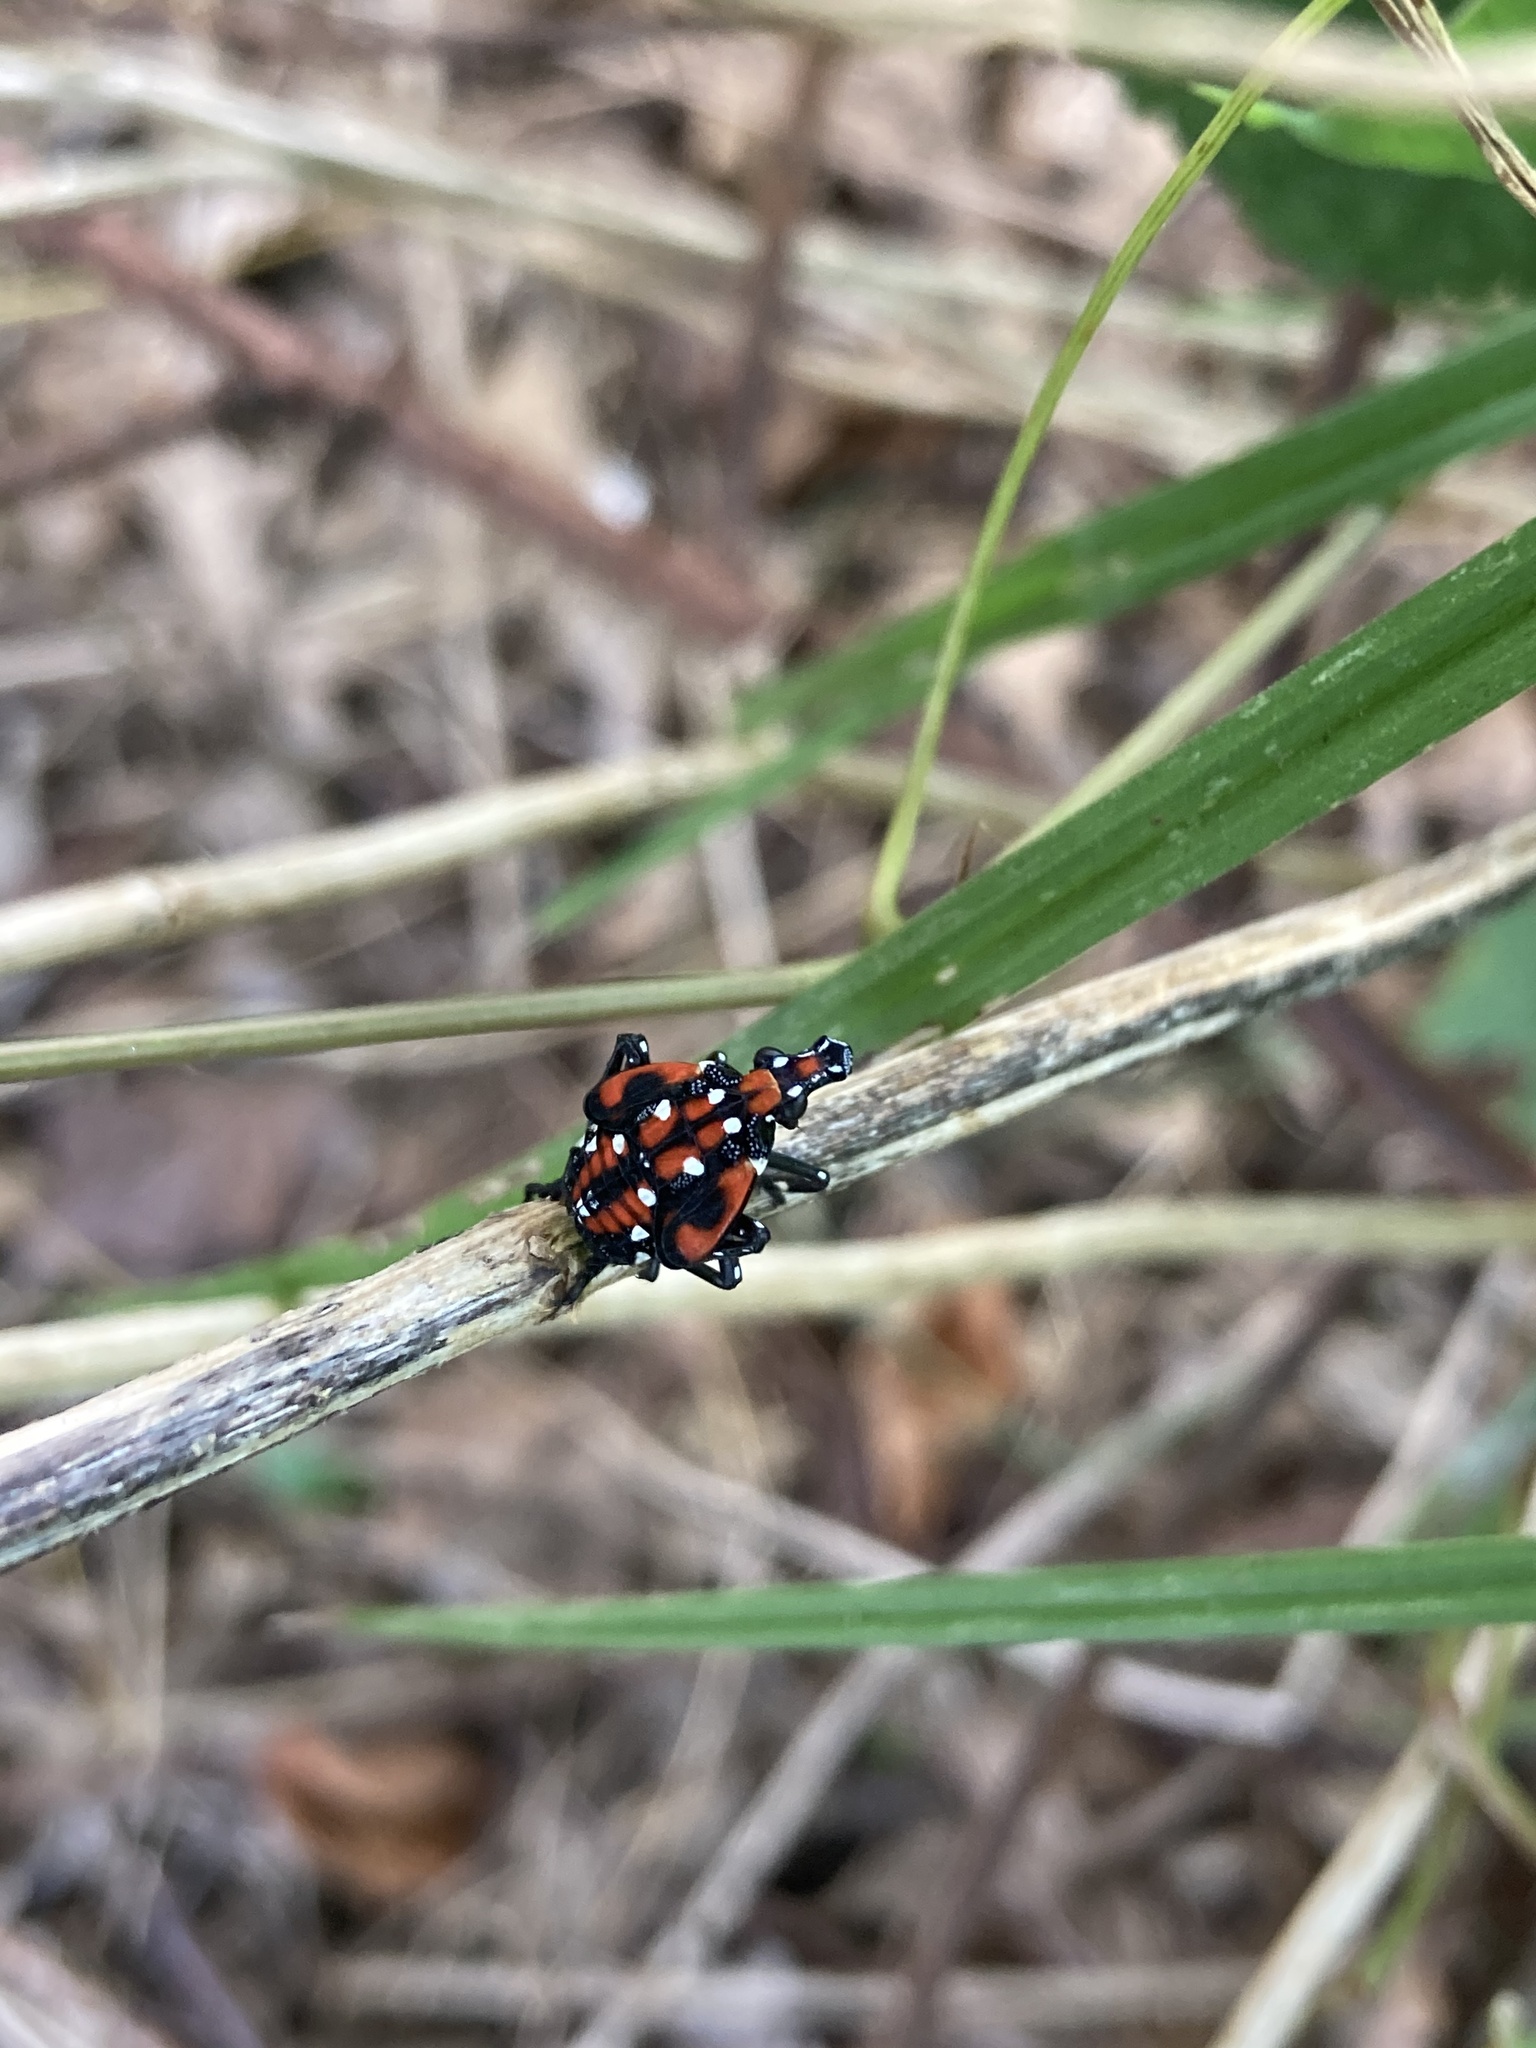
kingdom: Animalia
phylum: Arthropoda
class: Insecta
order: Hemiptera
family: Fulgoridae
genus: Lycorma
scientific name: Lycorma delicatula
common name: Spotted lanternfly
